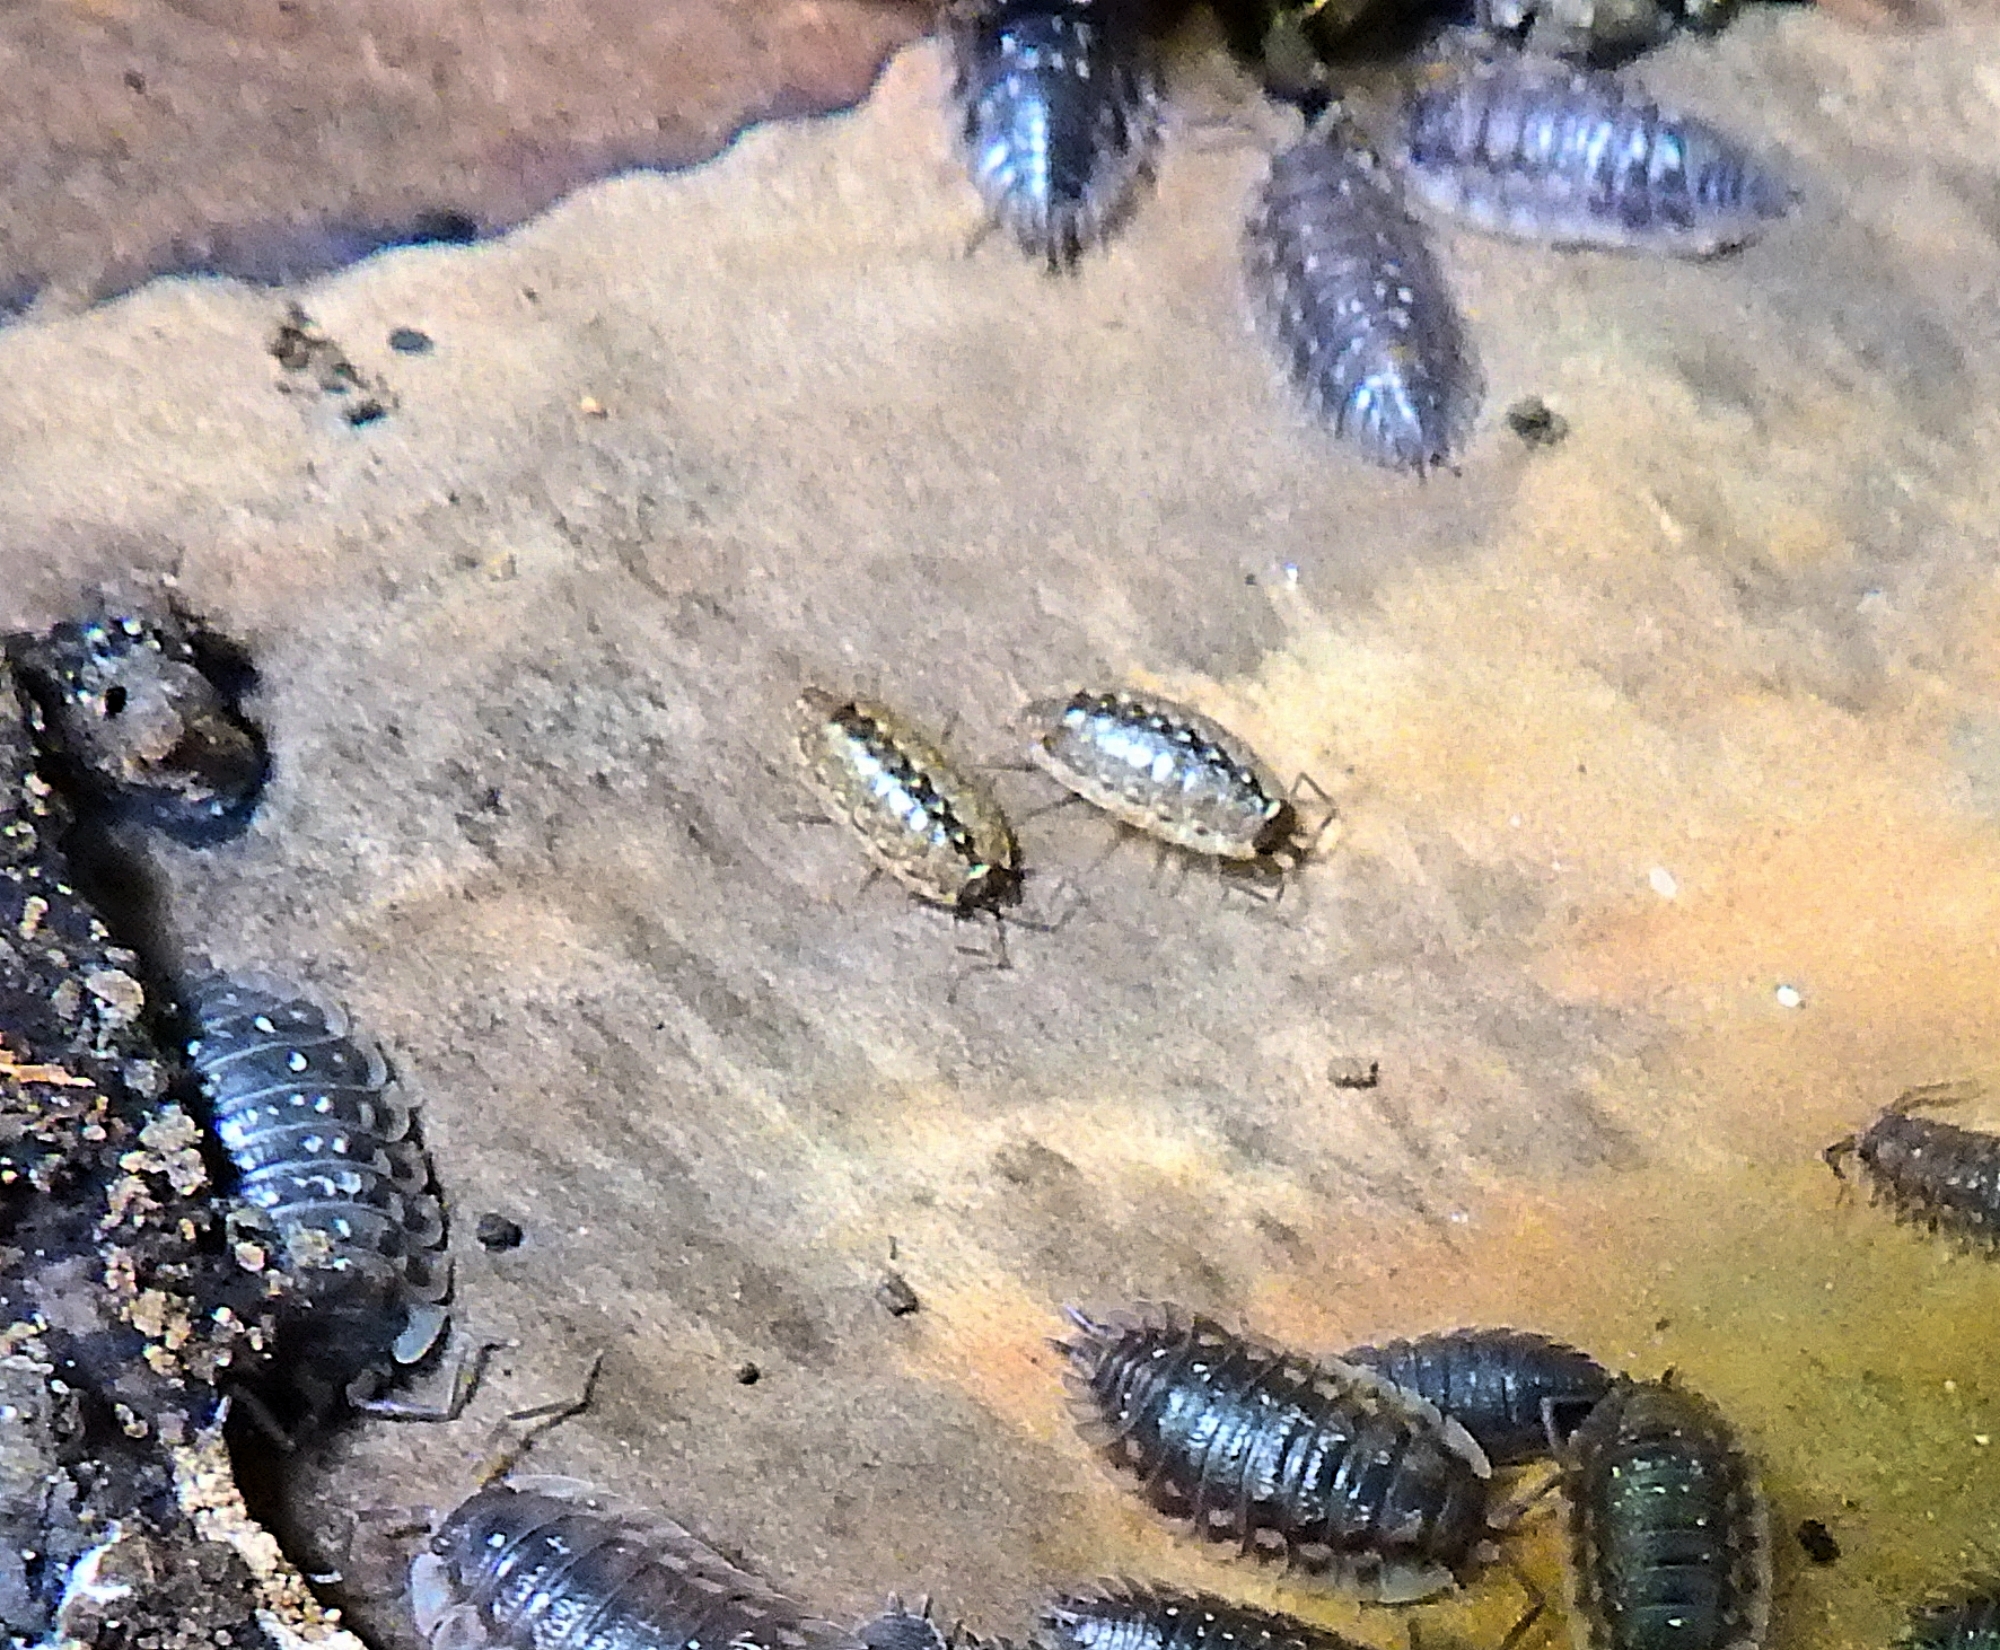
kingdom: Animalia
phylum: Arthropoda
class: Malacostraca
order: Isopoda
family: Philosciidae
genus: Philoscia
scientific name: Philoscia muscorum
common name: Common striped woodlouse
